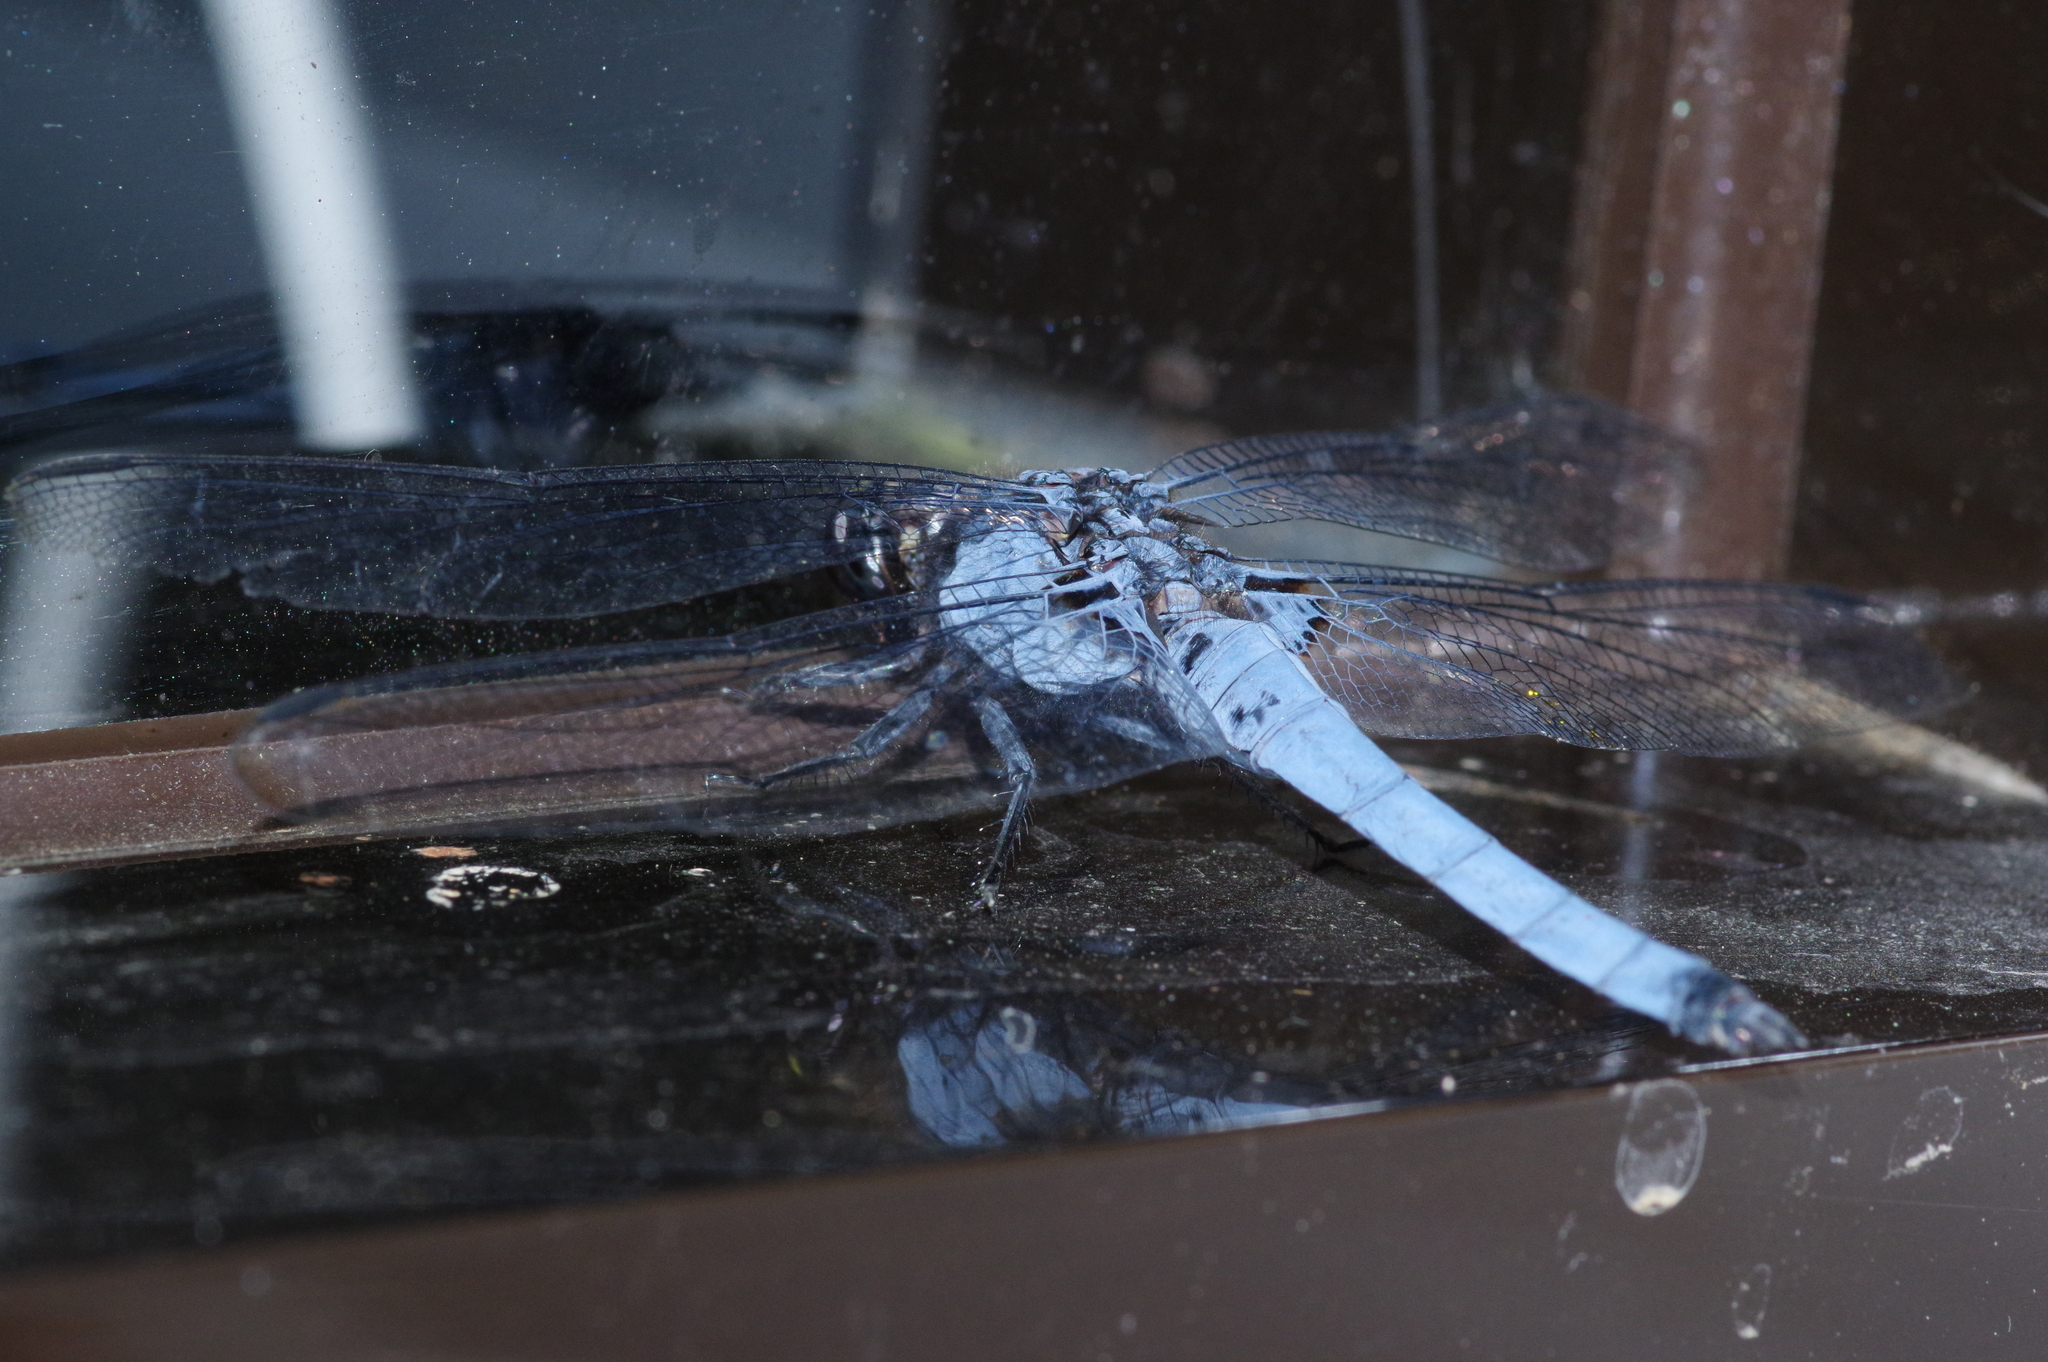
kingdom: Animalia
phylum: Arthropoda
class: Insecta
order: Odonata
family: Libellulidae
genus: Orthetrum
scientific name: Orthetrum melania
